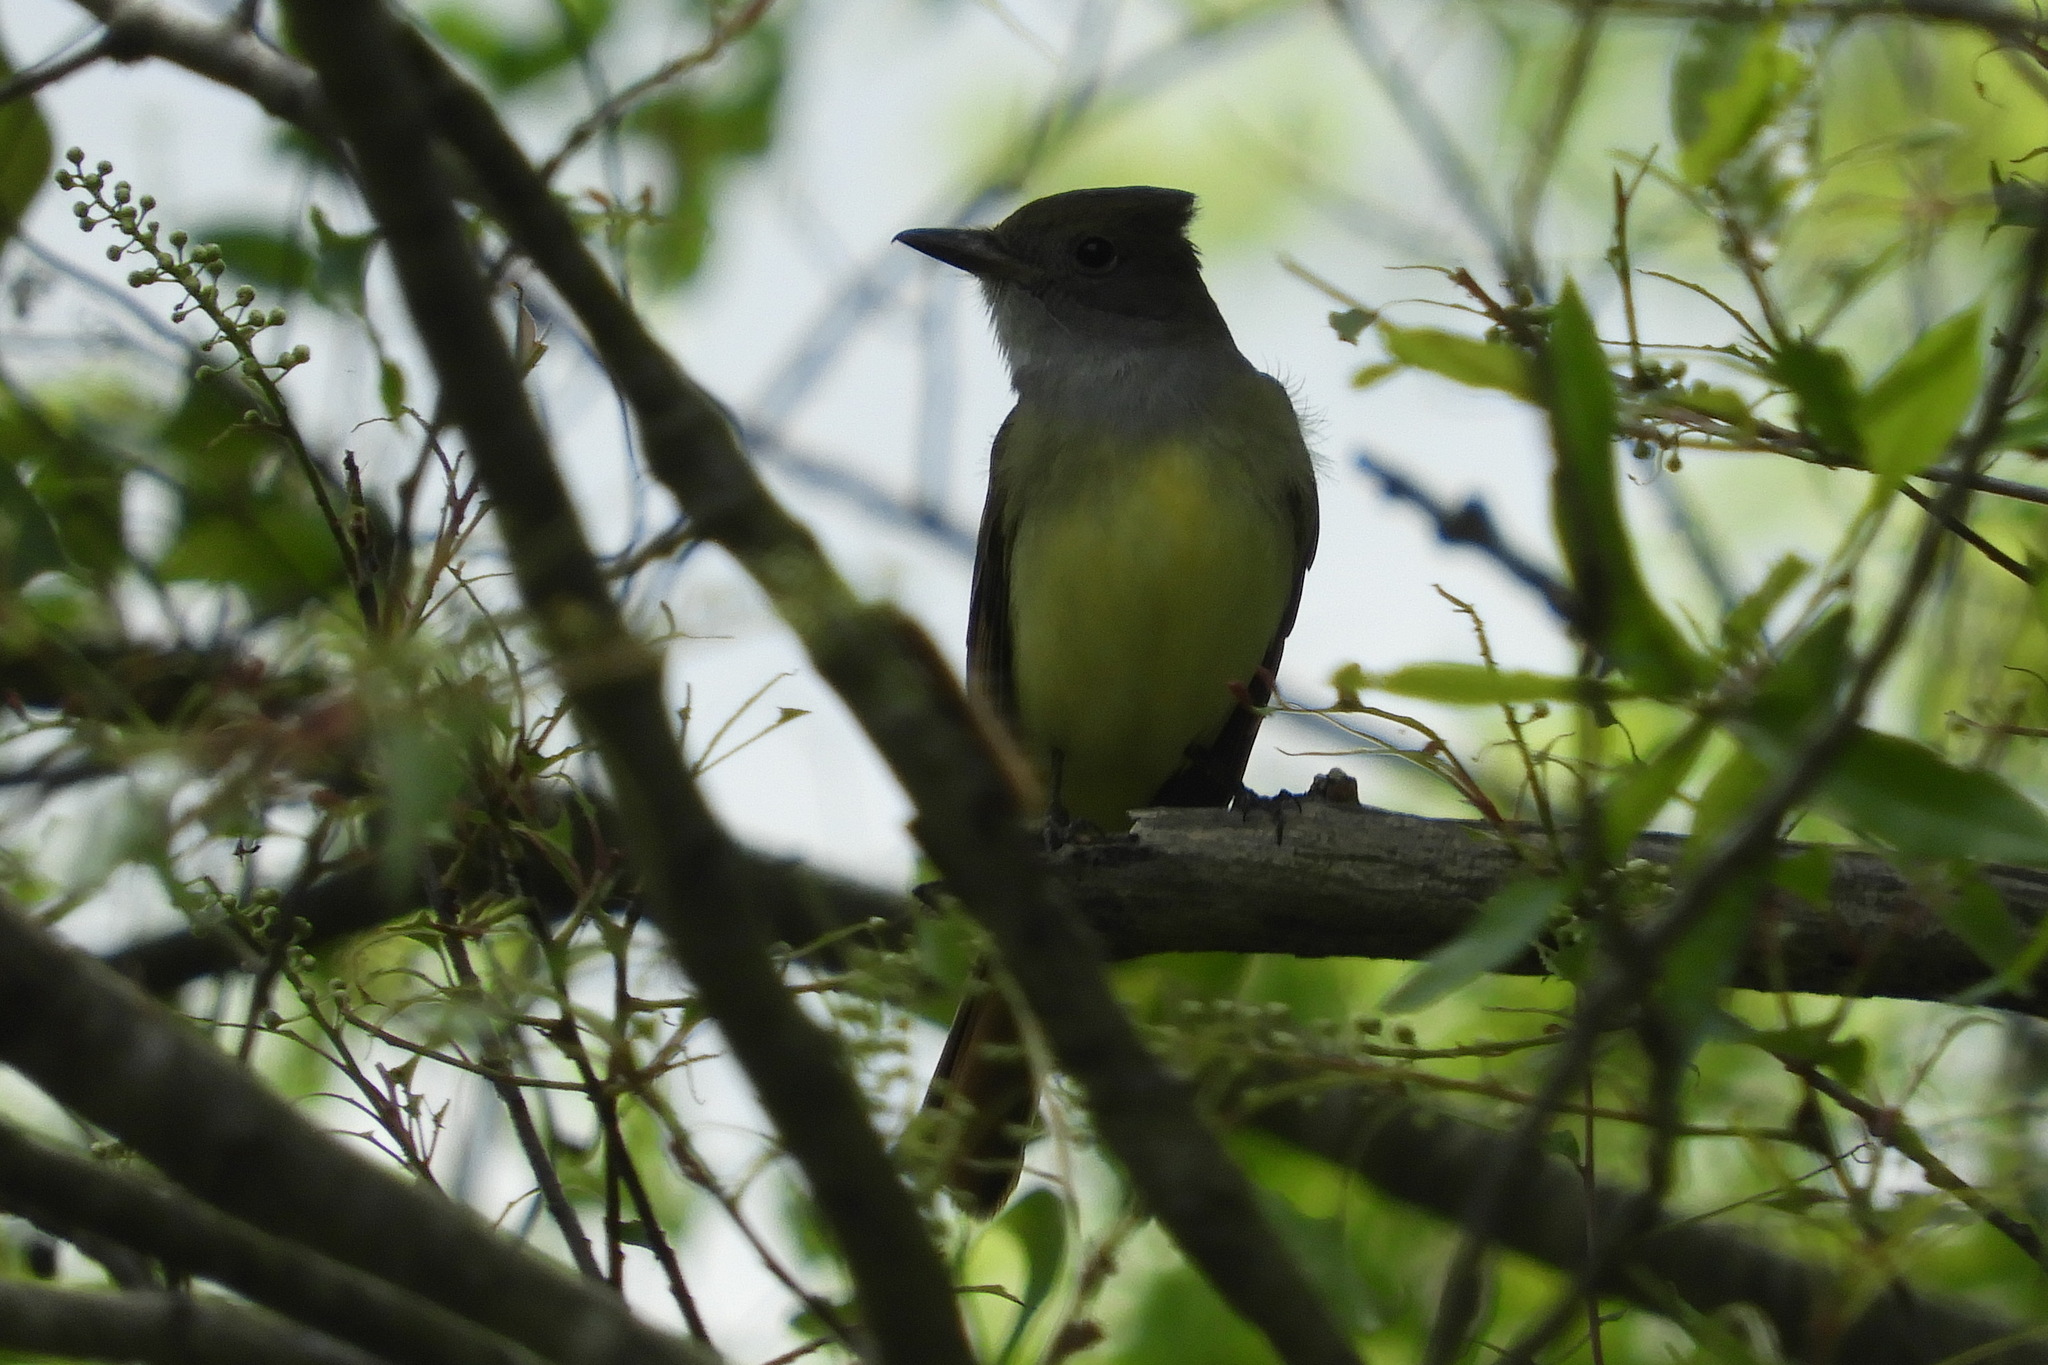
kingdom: Animalia
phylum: Chordata
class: Aves
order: Passeriformes
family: Tyrannidae
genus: Myiarchus
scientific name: Myiarchus crinitus
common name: Great crested flycatcher
